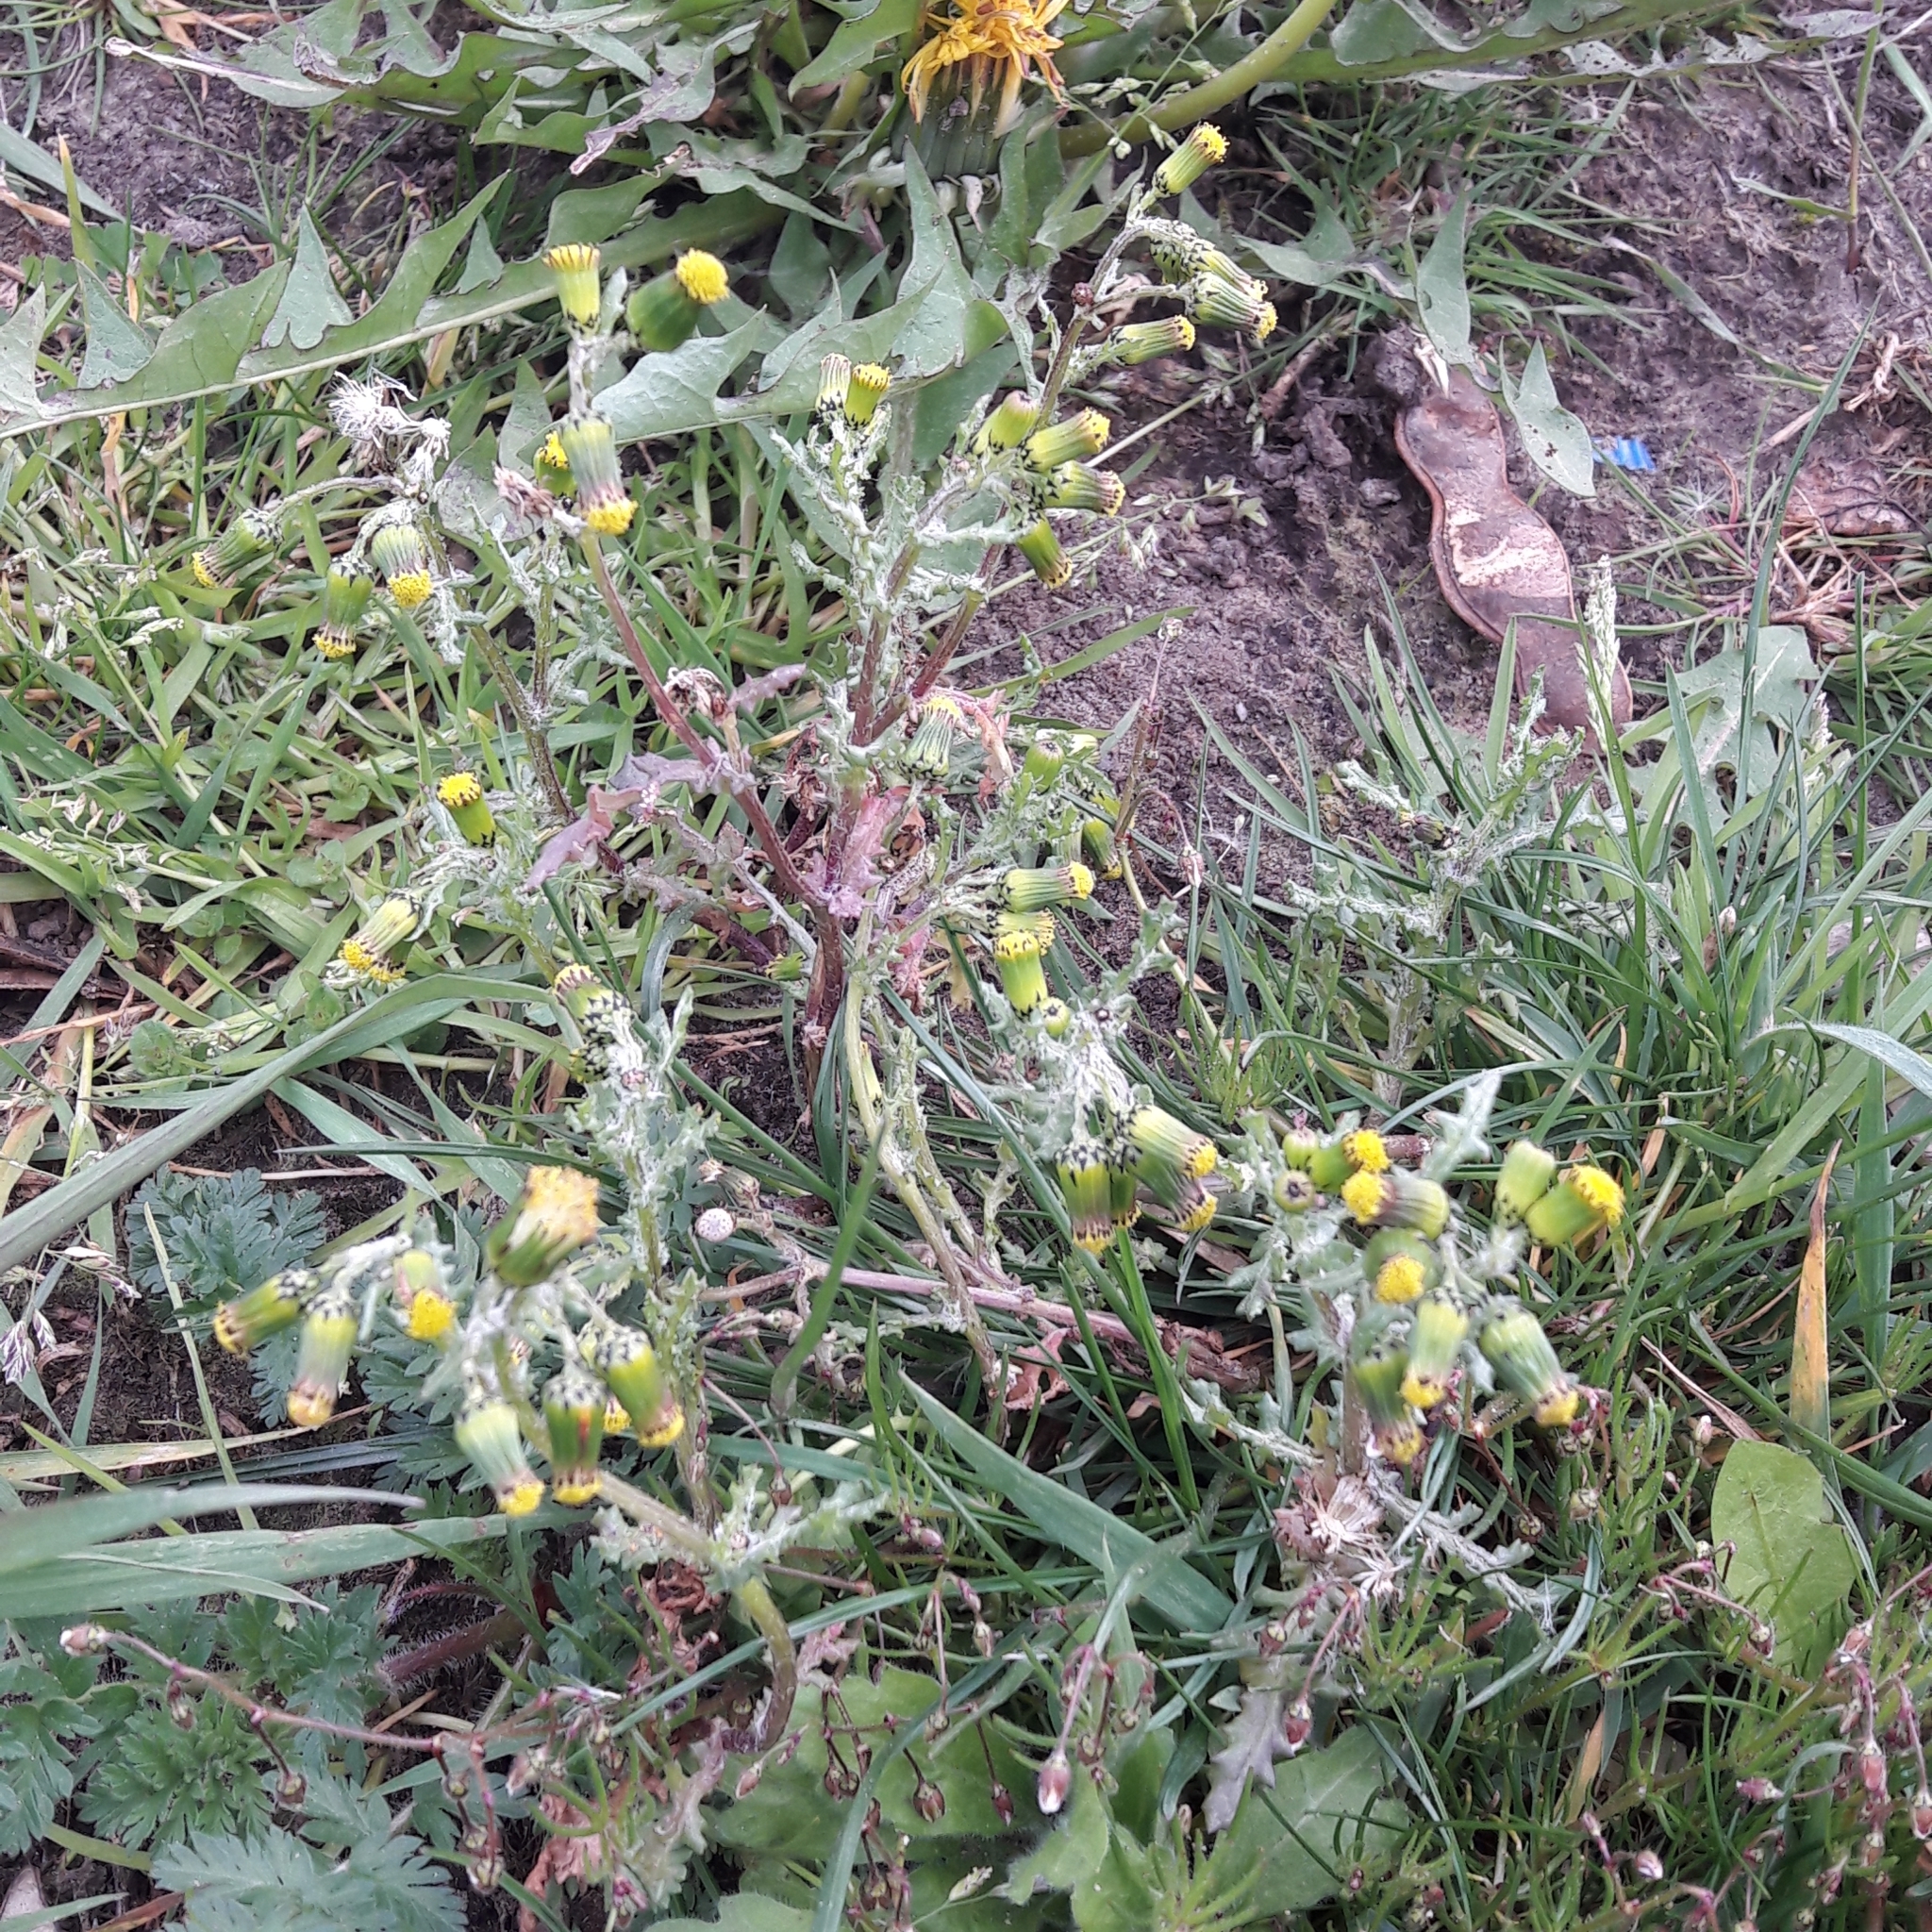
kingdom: Plantae
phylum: Tracheophyta
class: Magnoliopsida
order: Asterales
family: Asteraceae
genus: Senecio
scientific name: Senecio vulgaris
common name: Old-man-in-the-spring
